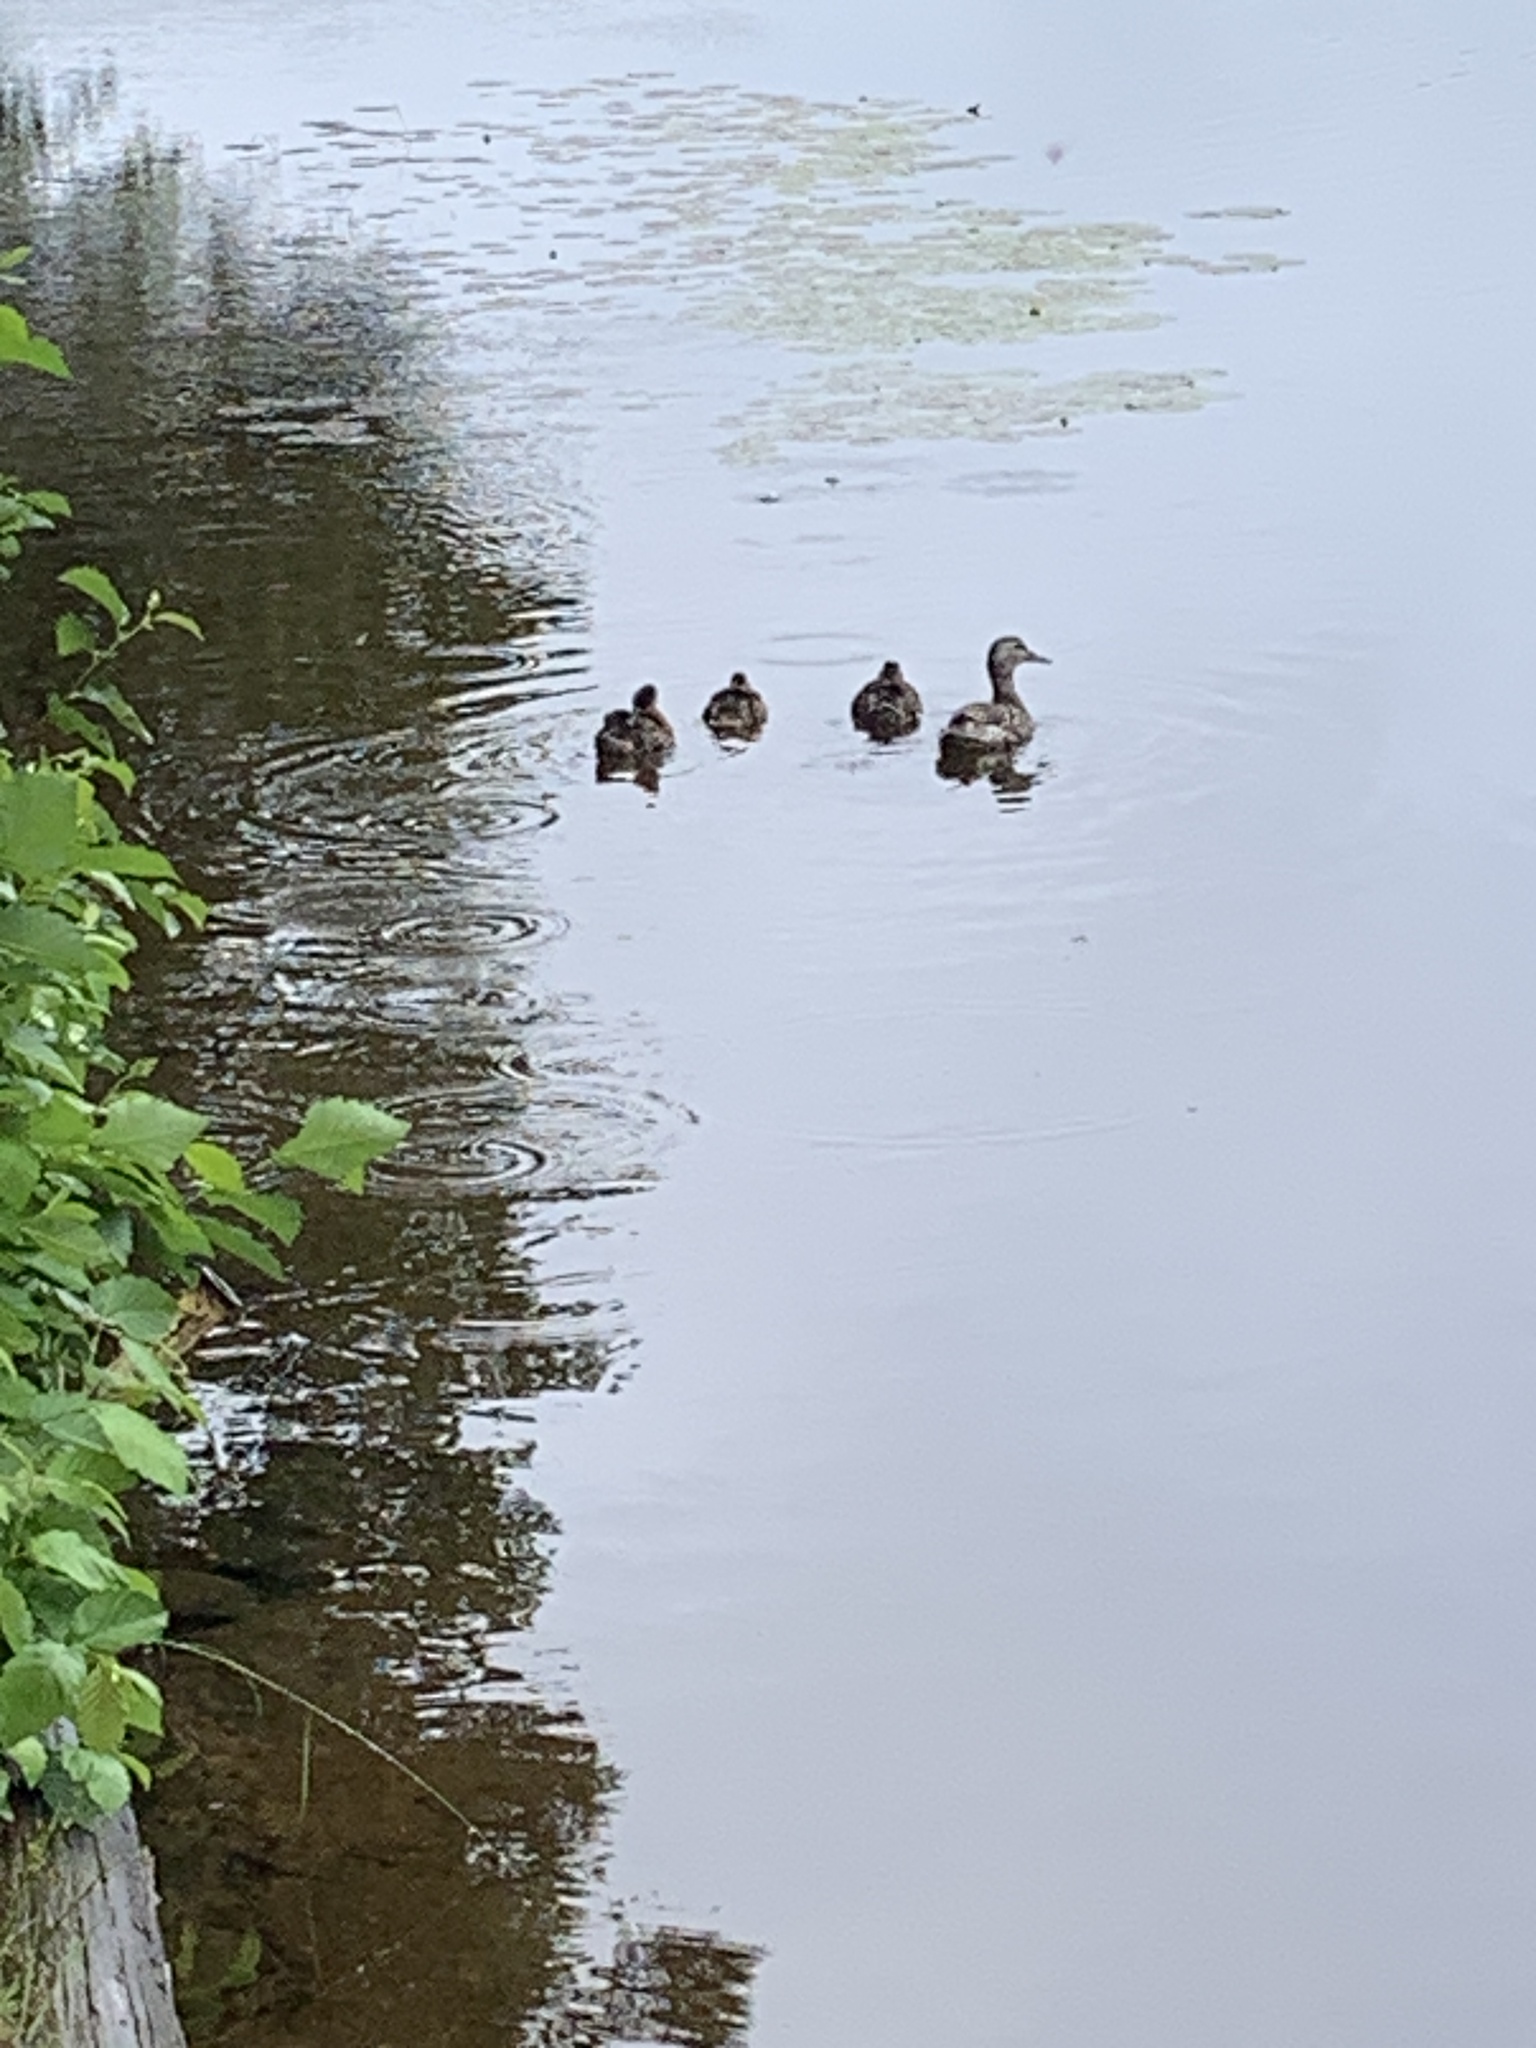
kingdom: Animalia
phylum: Chordata
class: Aves
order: Anseriformes
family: Anatidae
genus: Anas
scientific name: Anas platyrhynchos
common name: Mallard
